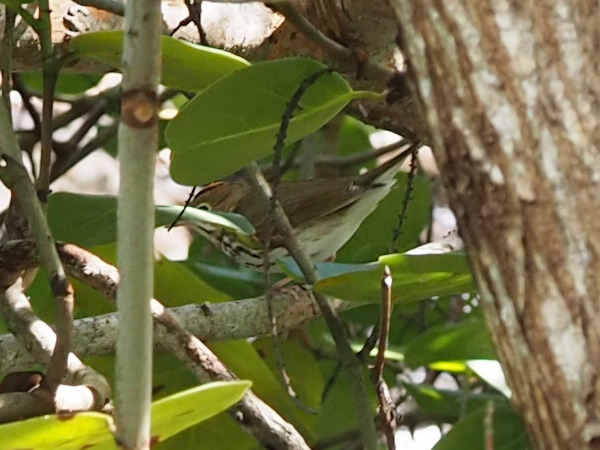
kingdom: Animalia
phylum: Chordata
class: Aves
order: Passeriformes
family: Parulidae
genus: Seiurus
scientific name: Seiurus aurocapilla
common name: Ovenbird
